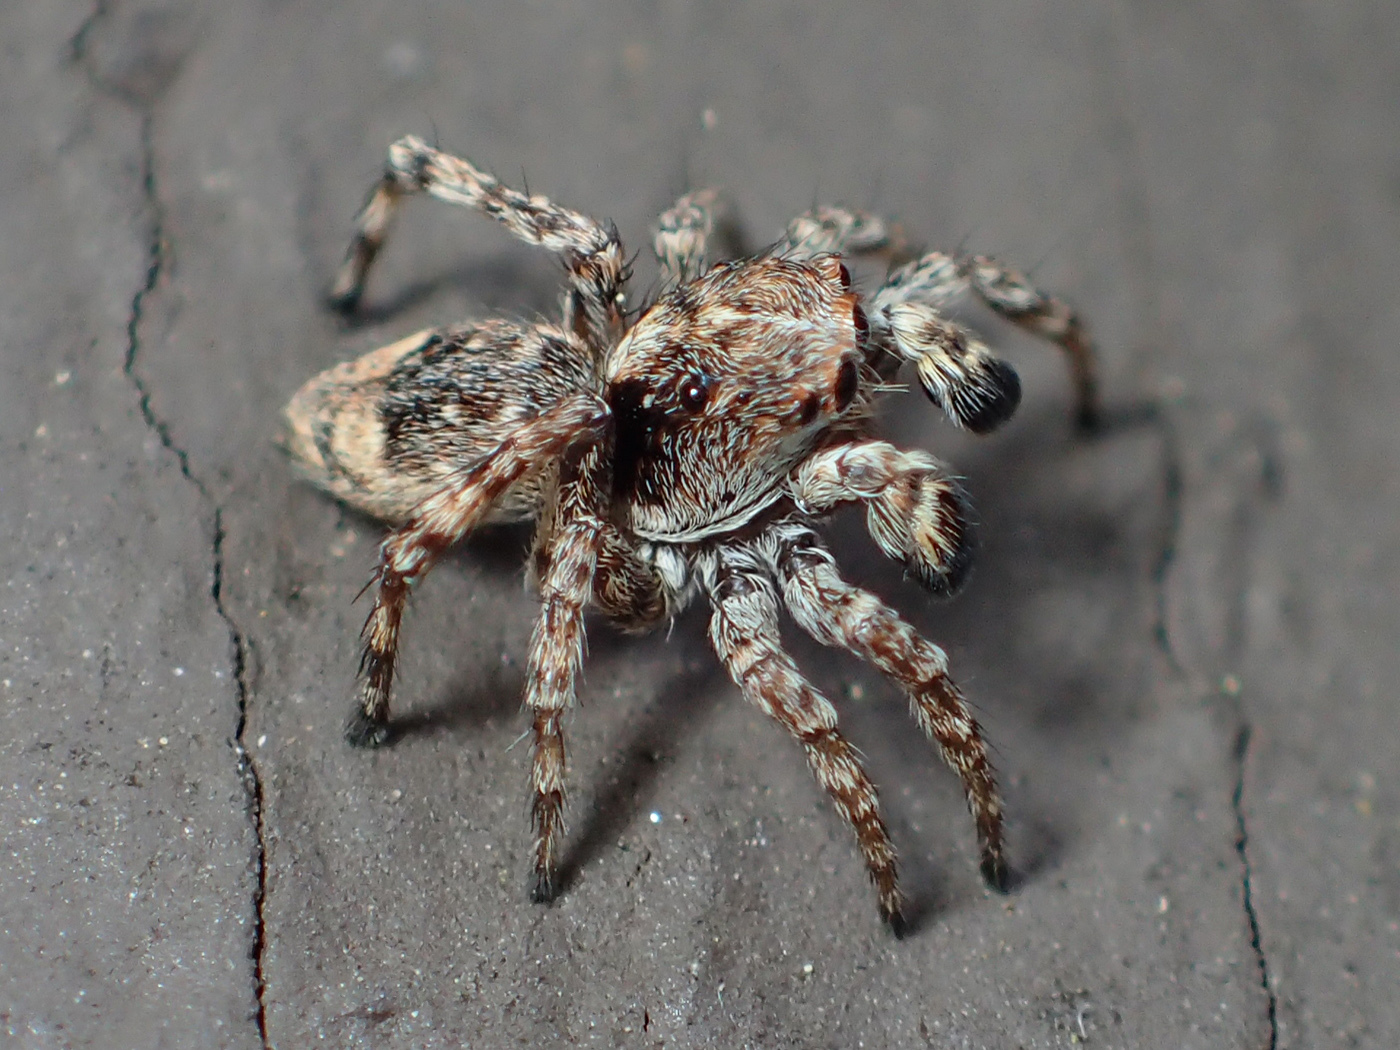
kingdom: Animalia
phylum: Arthropoda
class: Arachnida
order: Araneae
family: Salticidae
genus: Attulus
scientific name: Attulus fasciger
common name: Asiatic wall jumping spider
